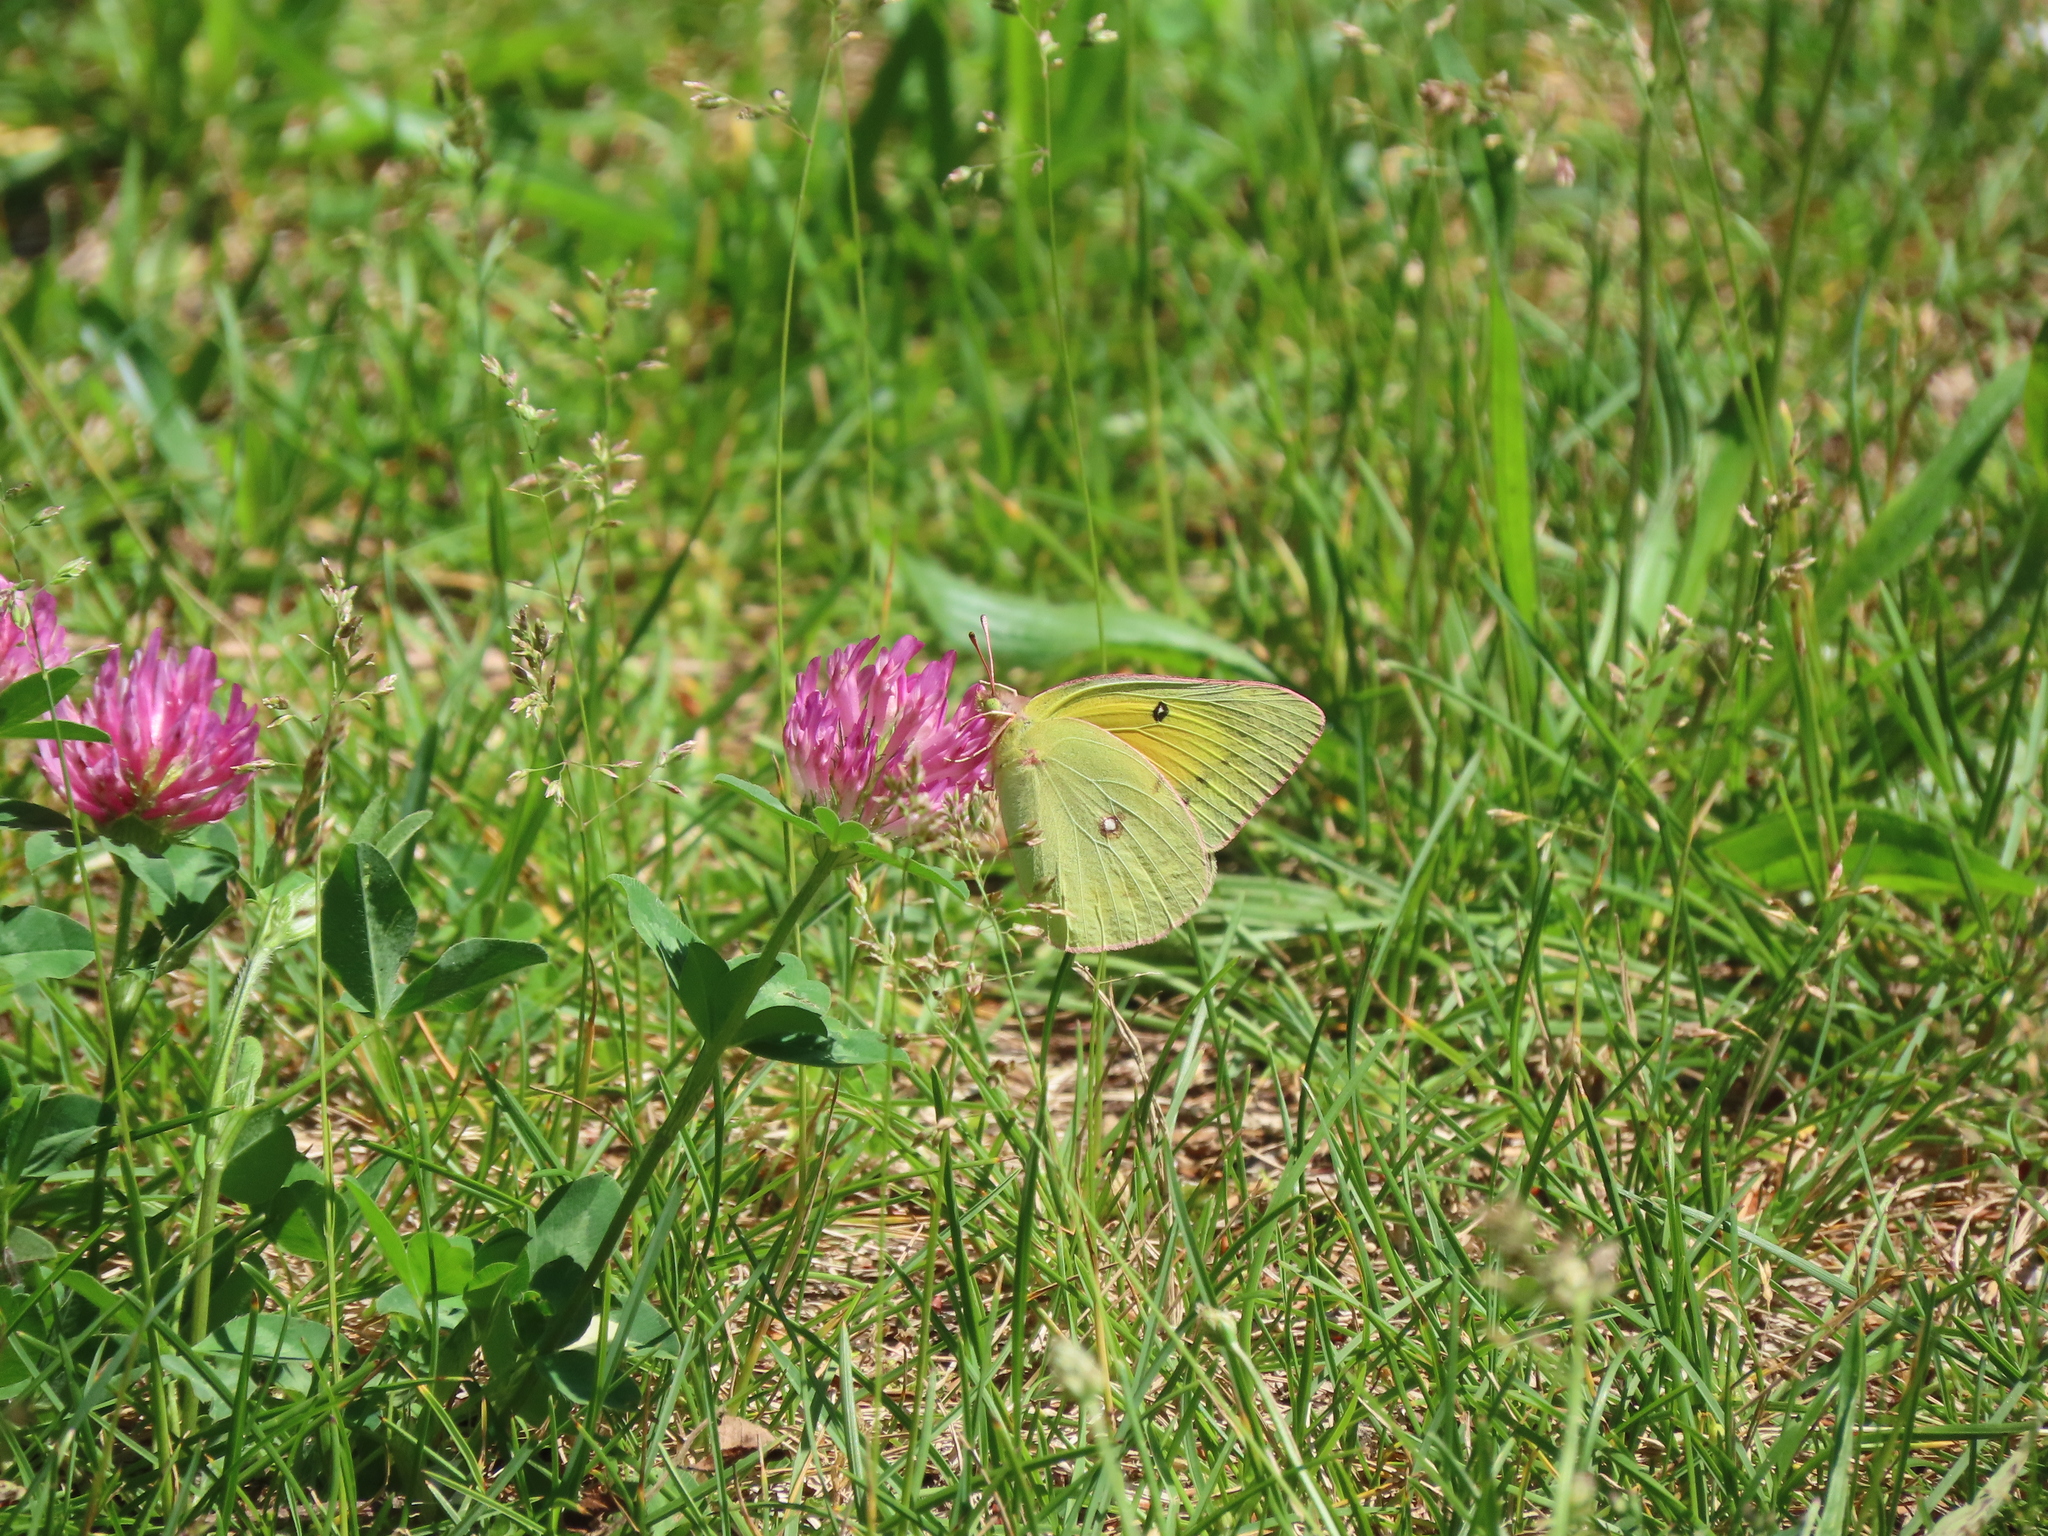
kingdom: Animalia
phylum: Arthropoda
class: Insecta
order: Lepidoptera
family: Pieridae
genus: Colias
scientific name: Colias eurytheme
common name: Alfalfa butterfly
